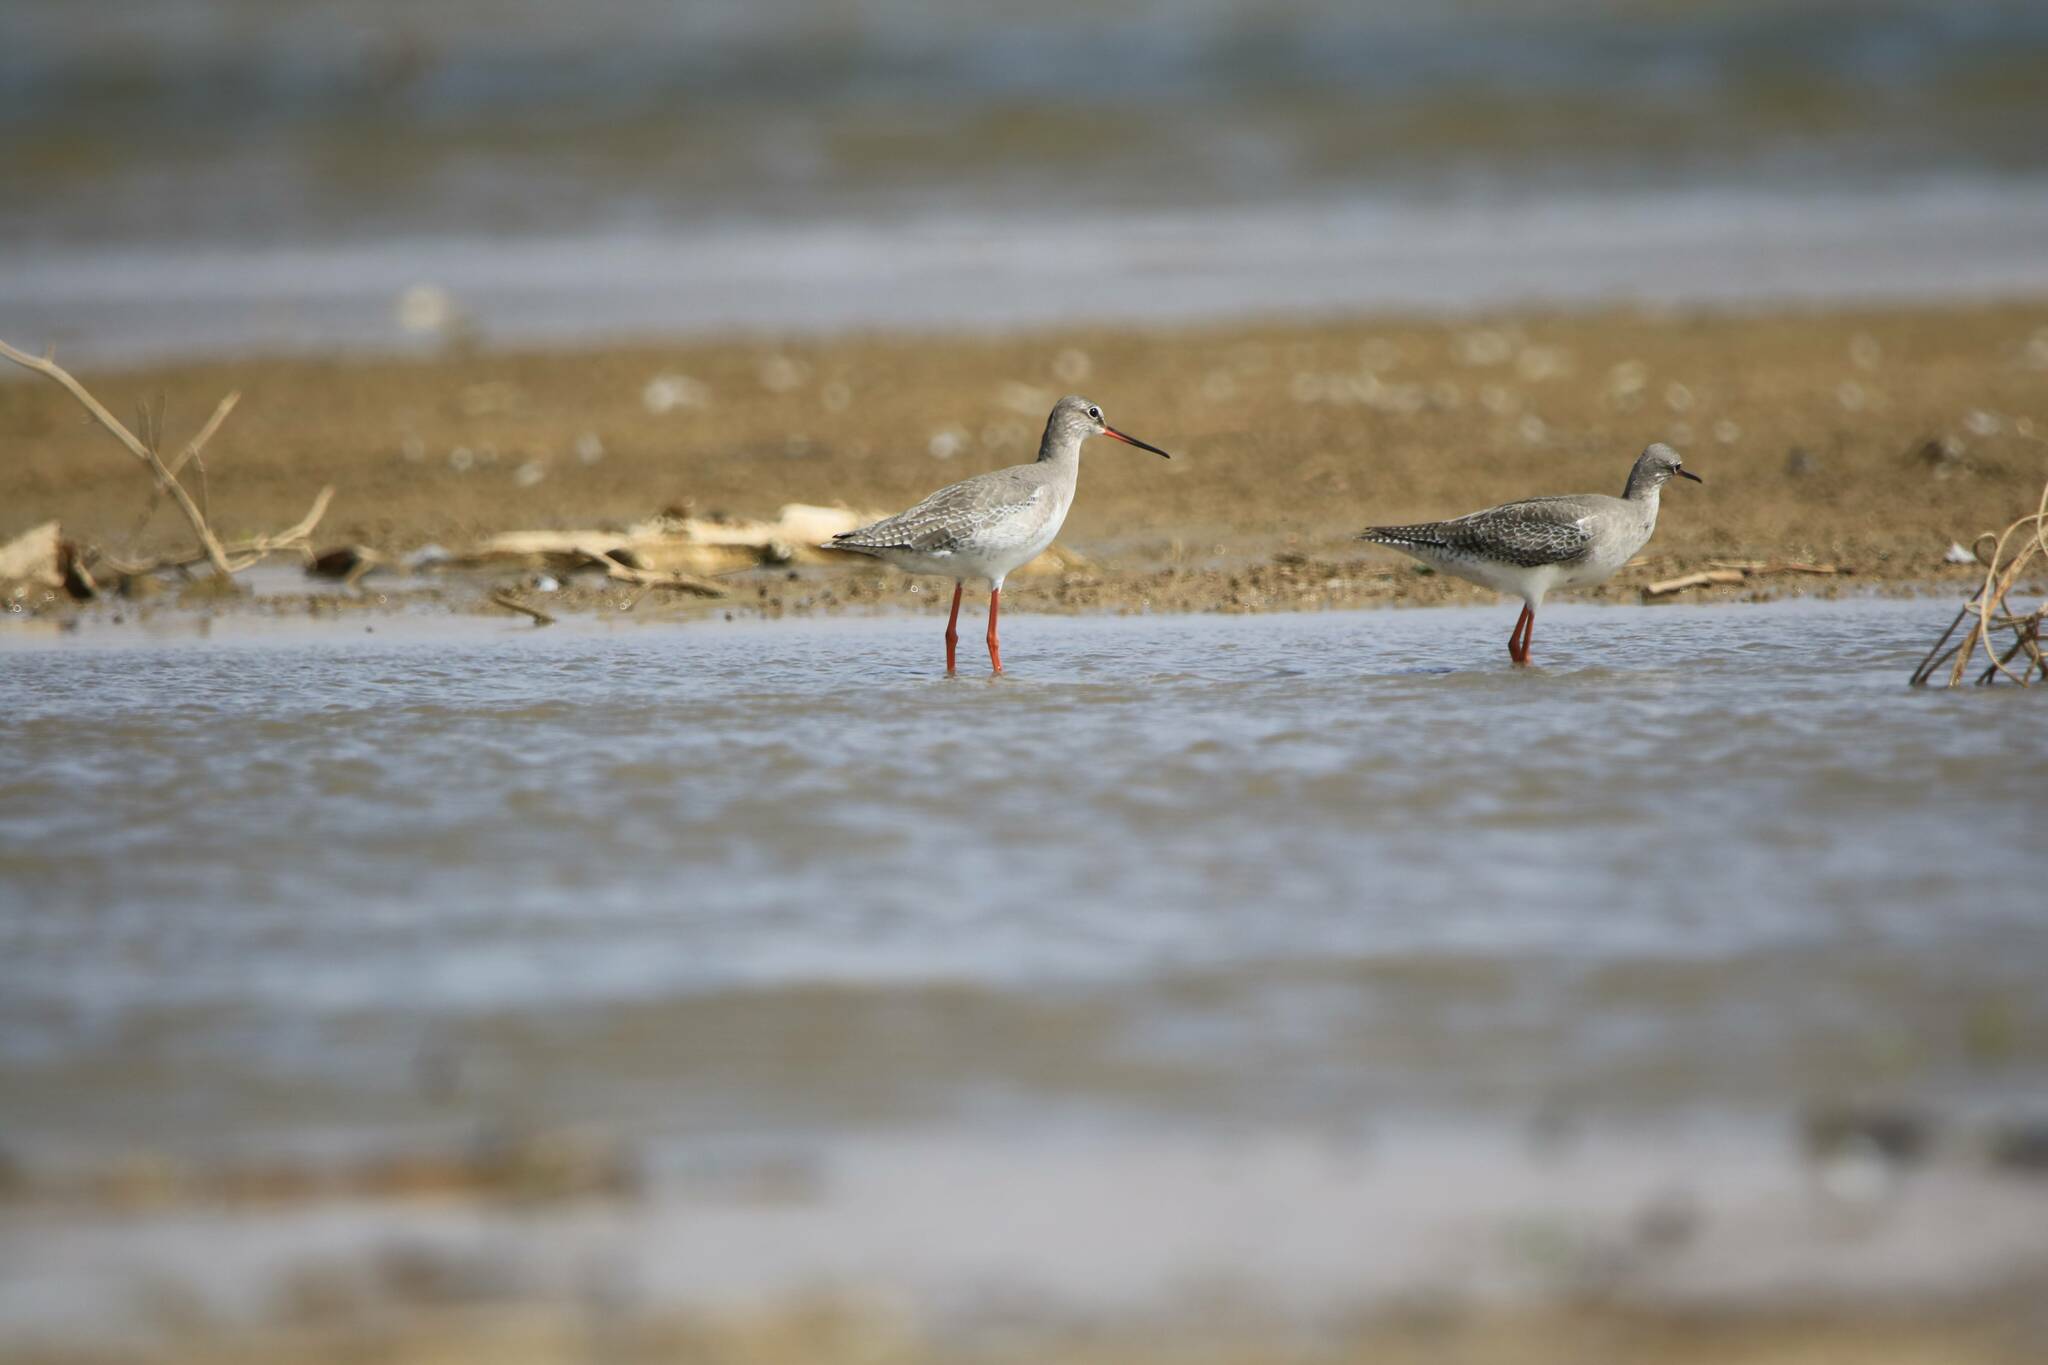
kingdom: Animalia
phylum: Chordata
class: Aves
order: Charadriiformes
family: Scolopacidae
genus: Tringa
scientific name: Tringa erythropus
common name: Spotted redshank
